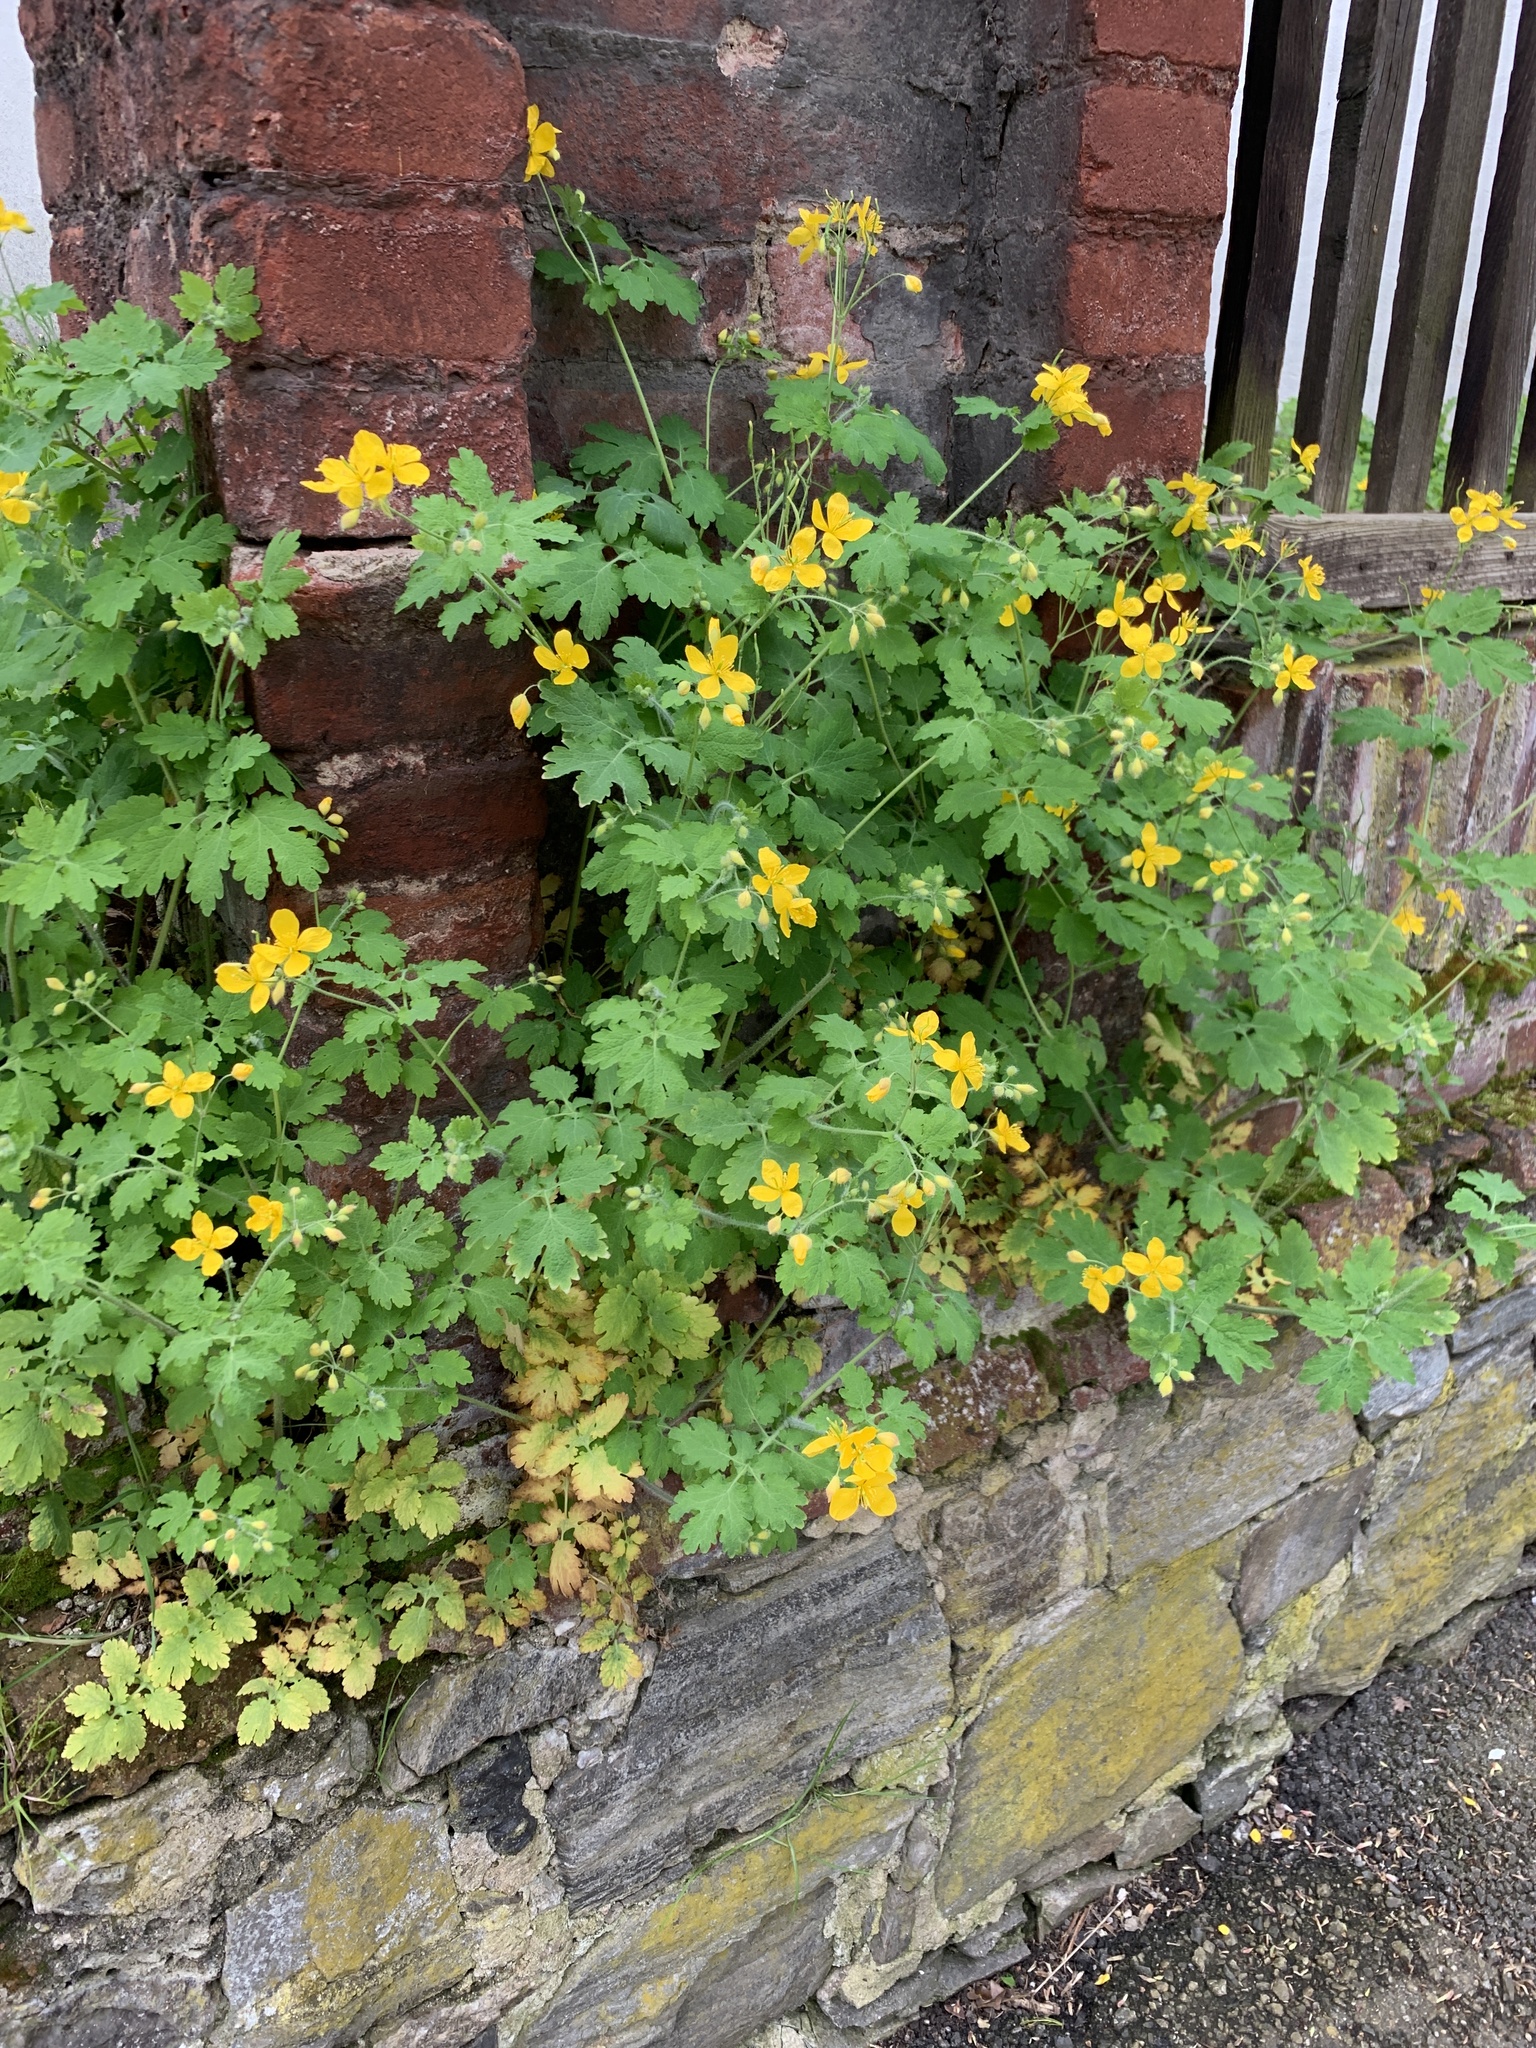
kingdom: Plantae
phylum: Tracheophyta
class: Magnoliopsida
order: Ranunculales
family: Papaveraceae
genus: Chelidonium
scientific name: Chelidonium majus
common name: Greater celandine
